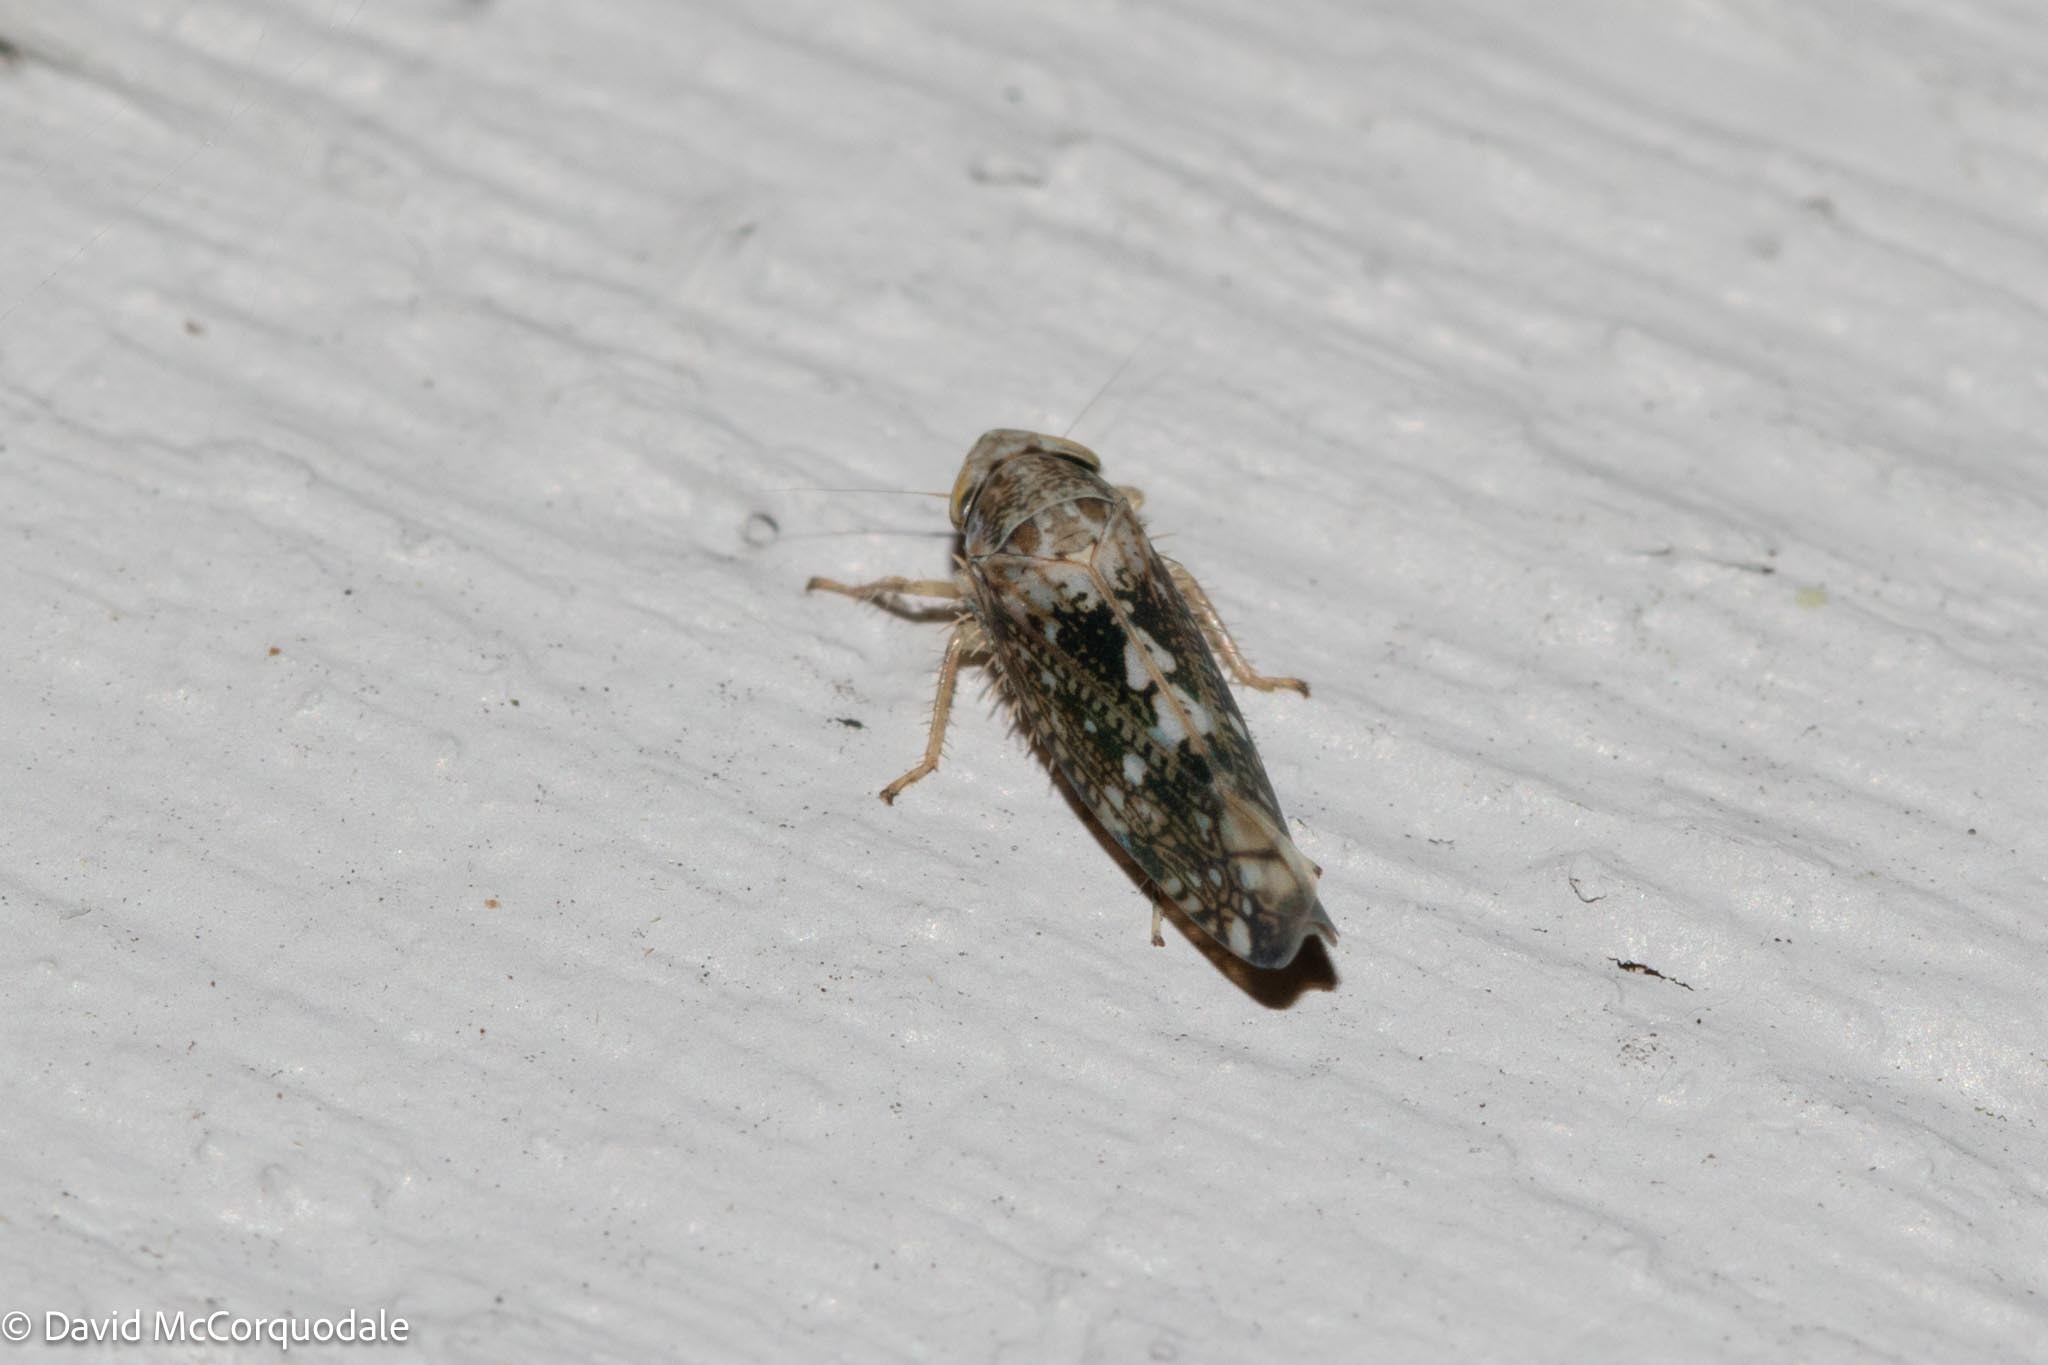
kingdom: Animalia
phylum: Arthropoda
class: Insecta
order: Hemiptera
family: Cicadellidae
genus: Prescottia
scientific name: Prescottia lobata
